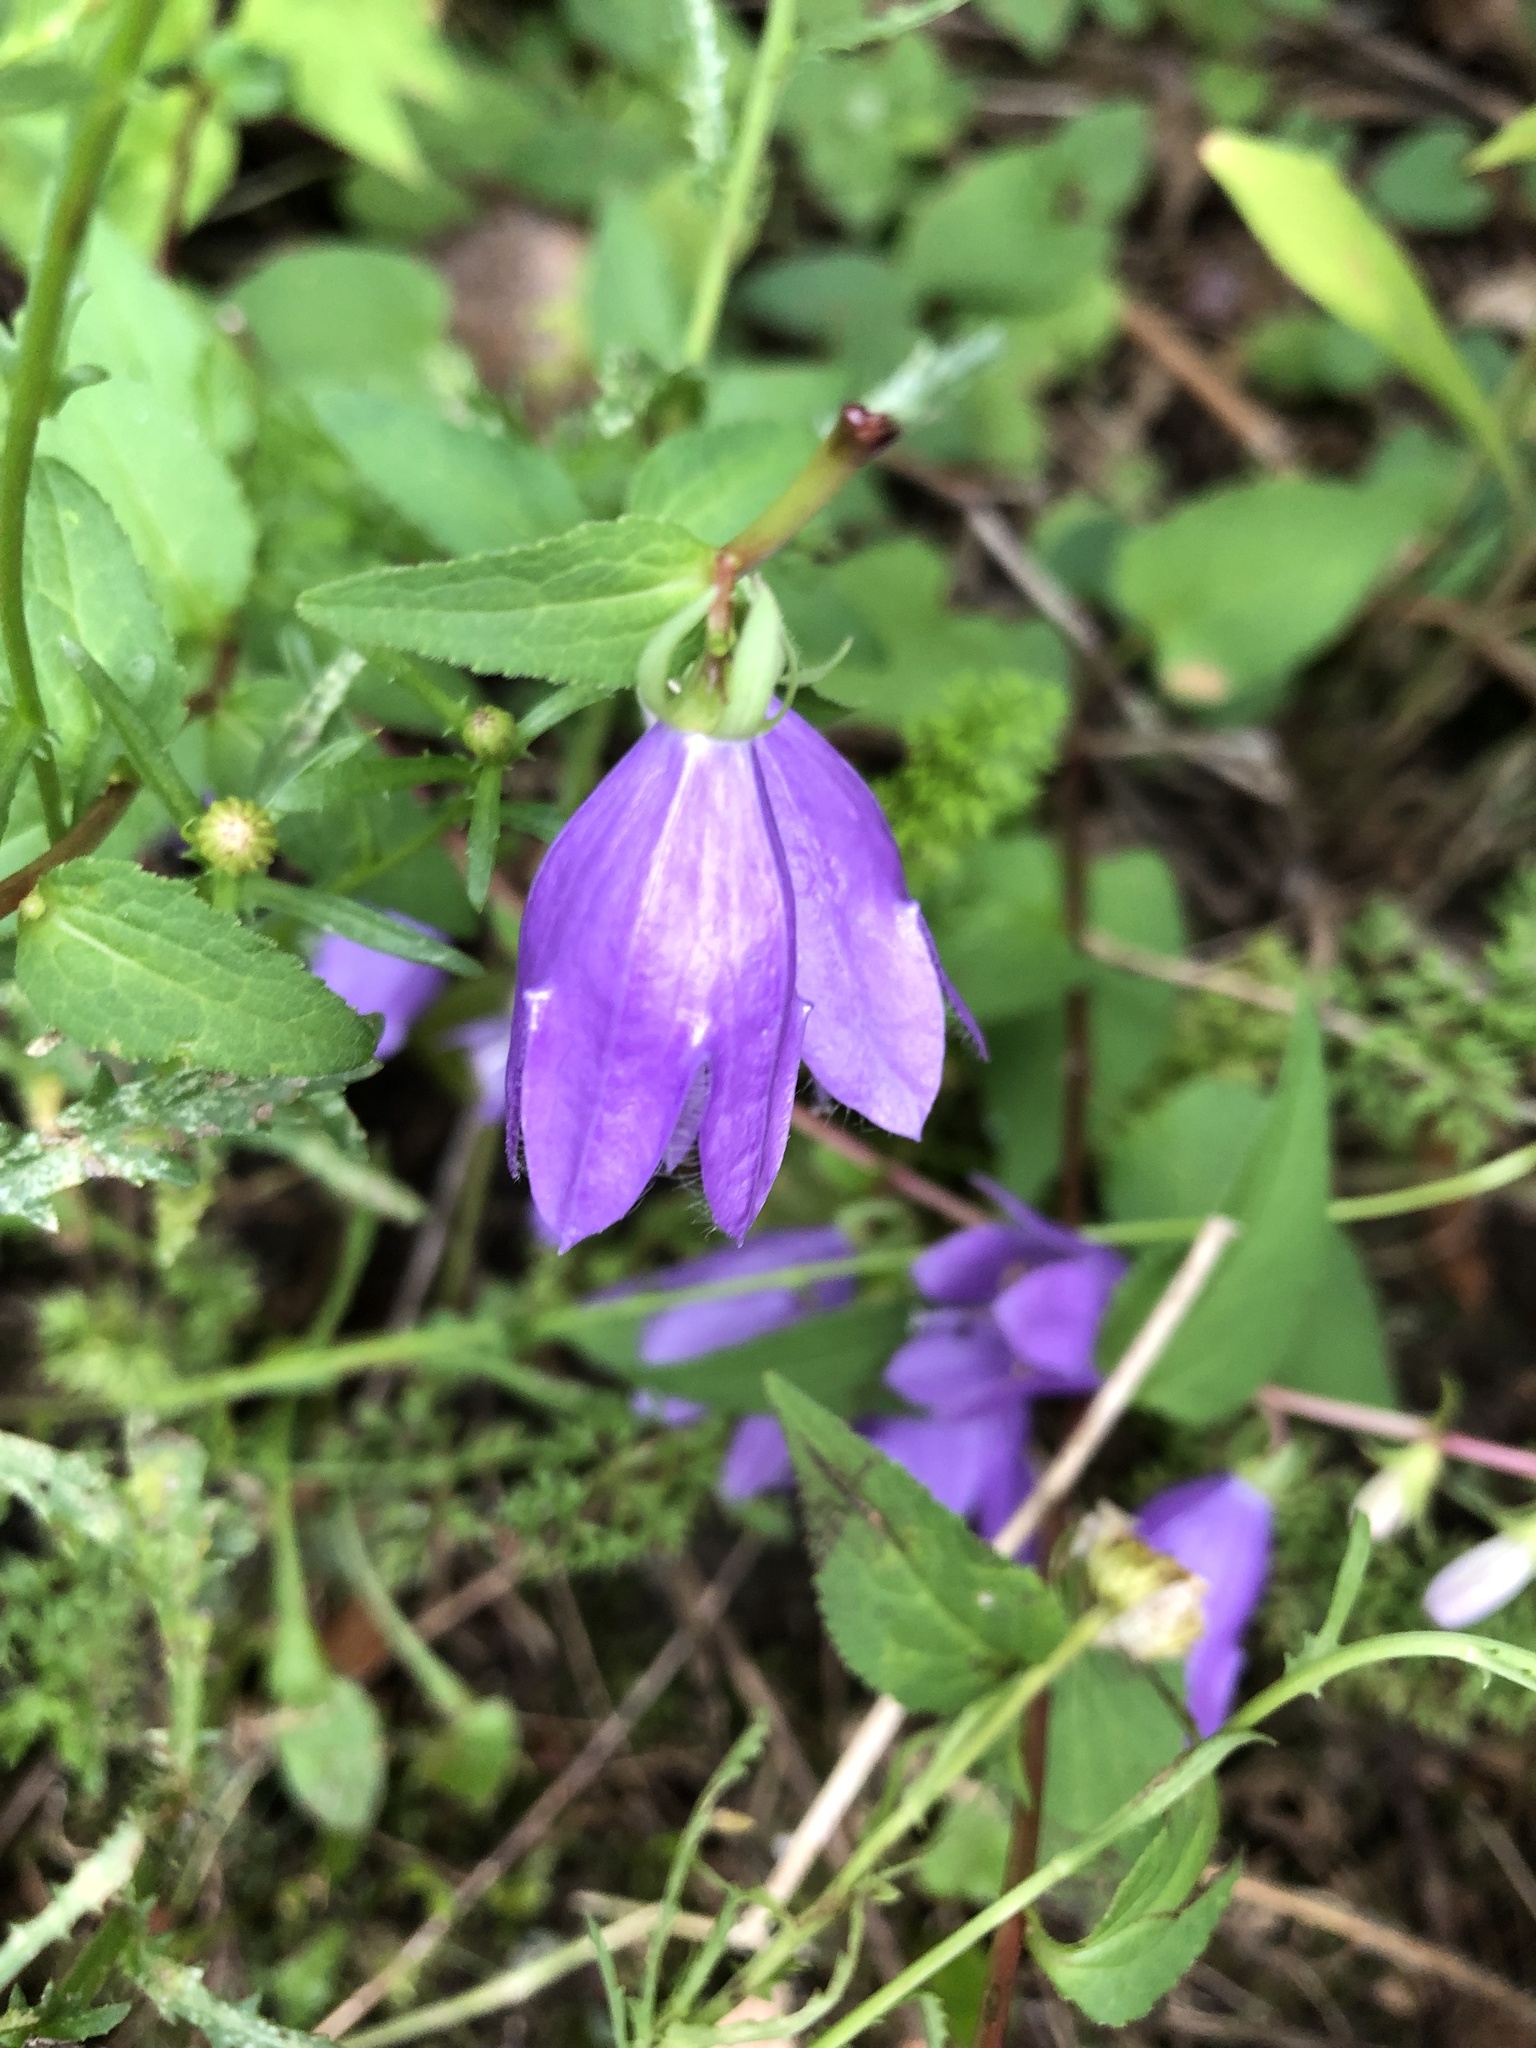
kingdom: Plantae
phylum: Tracheophyta
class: Magnoliopsida
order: Asterales
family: Campanulaceae
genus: Campanula
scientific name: Campanula rapunculoides
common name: Creeping bellflower
